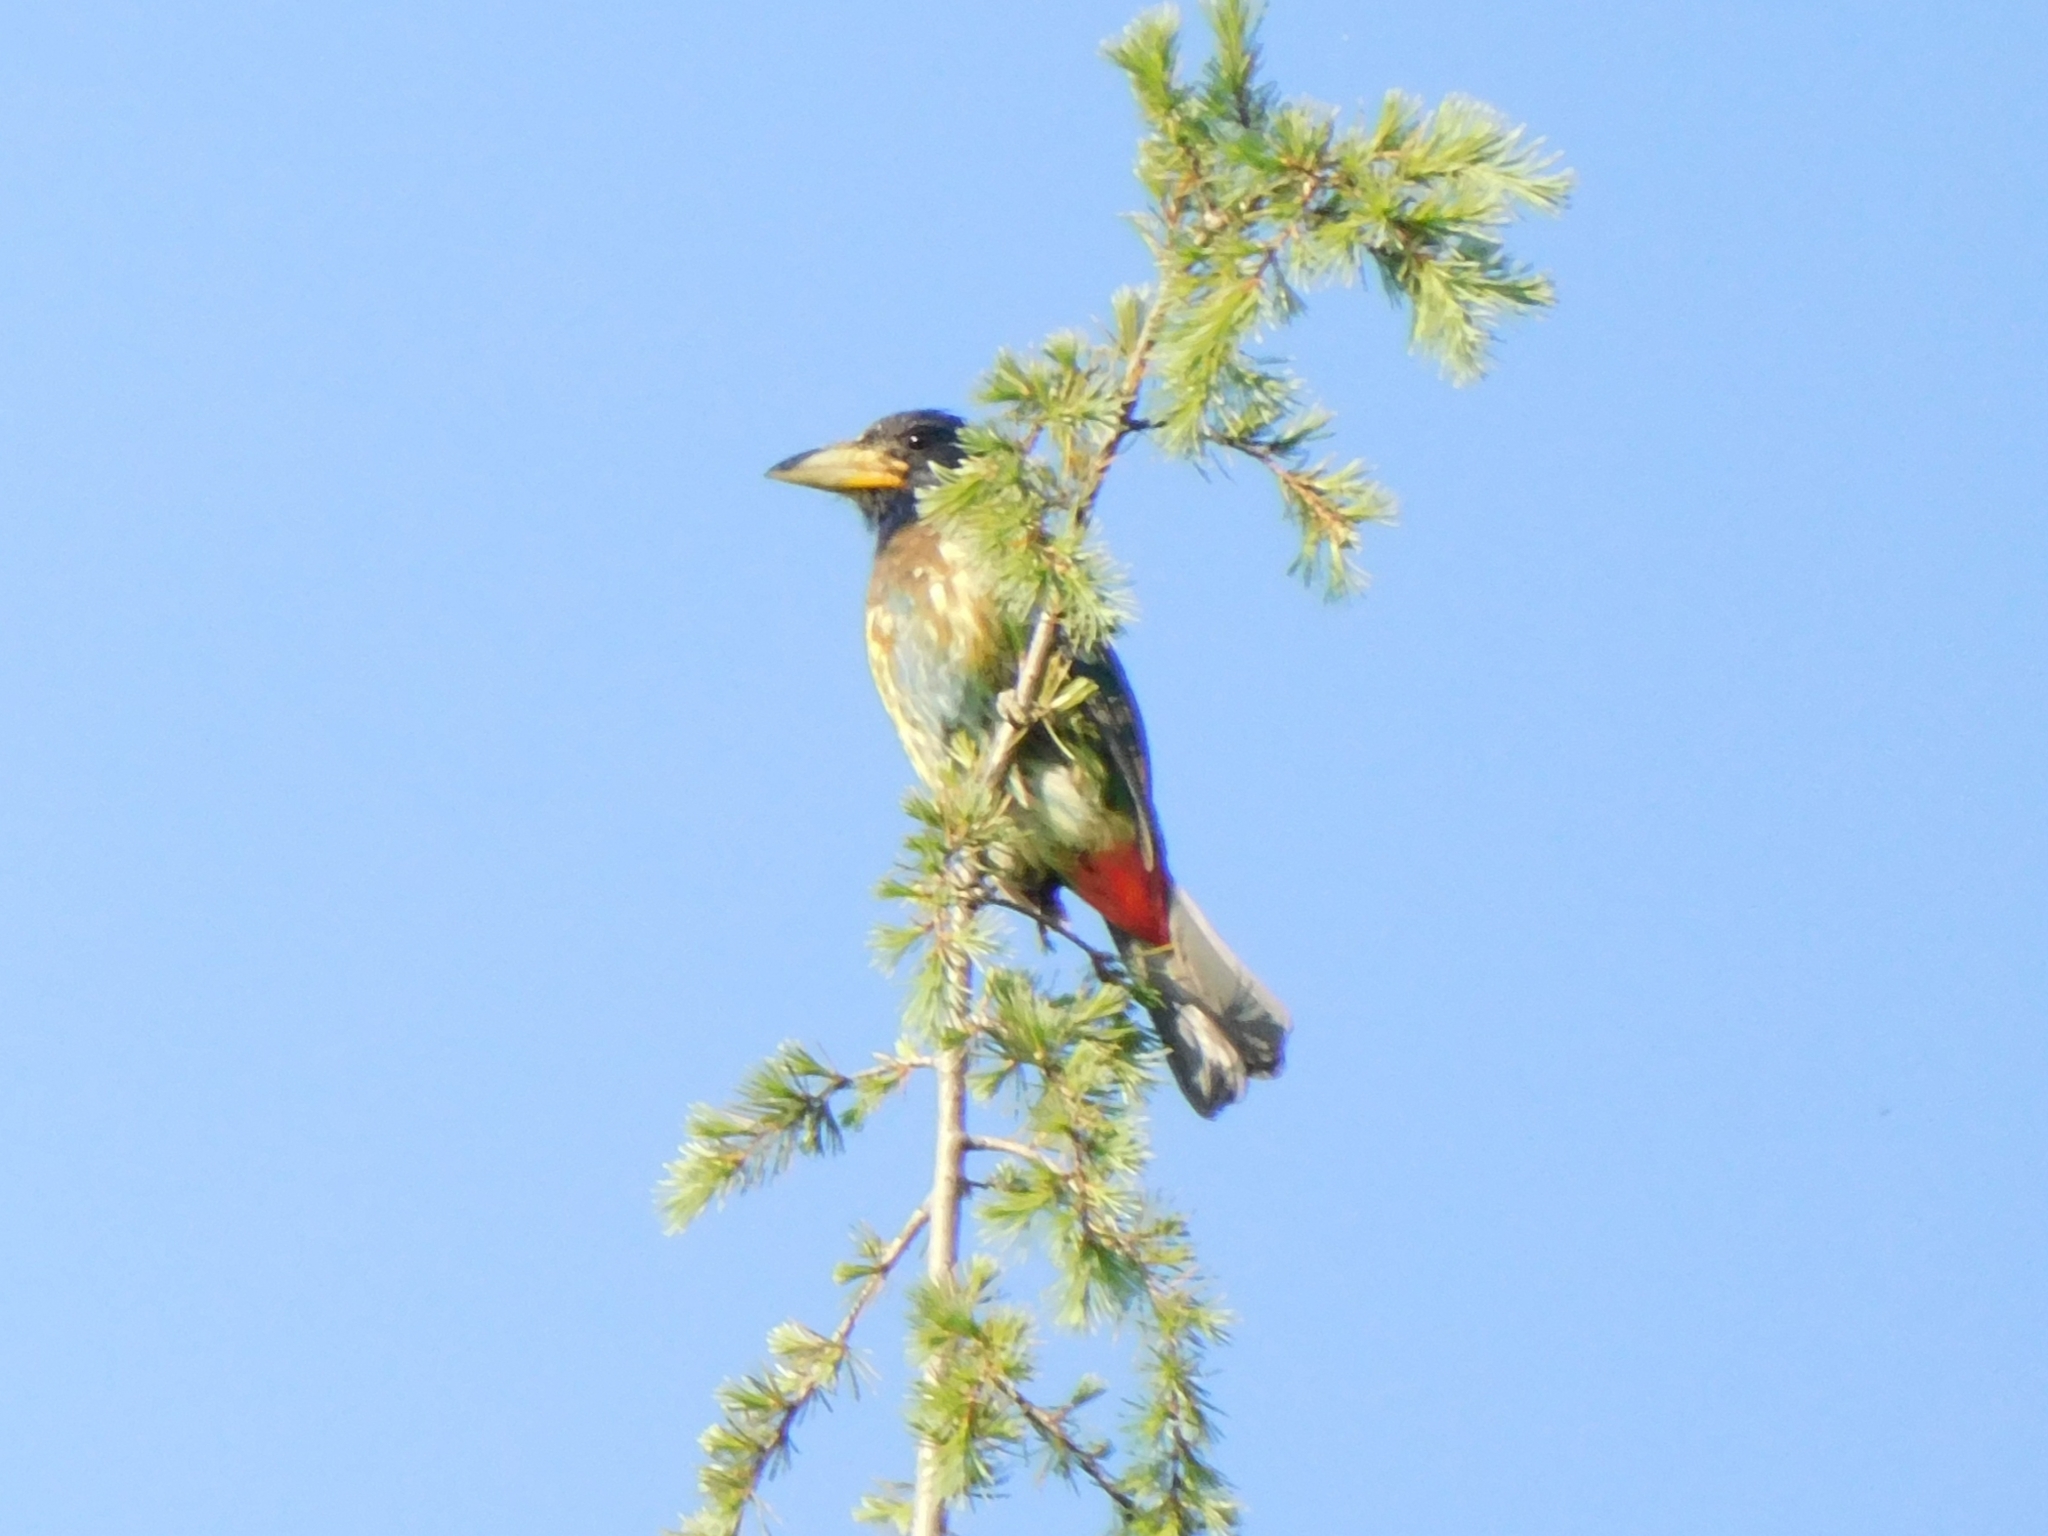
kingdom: Animalia
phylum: Chordata
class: Aves
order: Piciformes
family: Megalaimidae
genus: Psilopogon
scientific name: Psilopogon virens
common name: Great barbet
